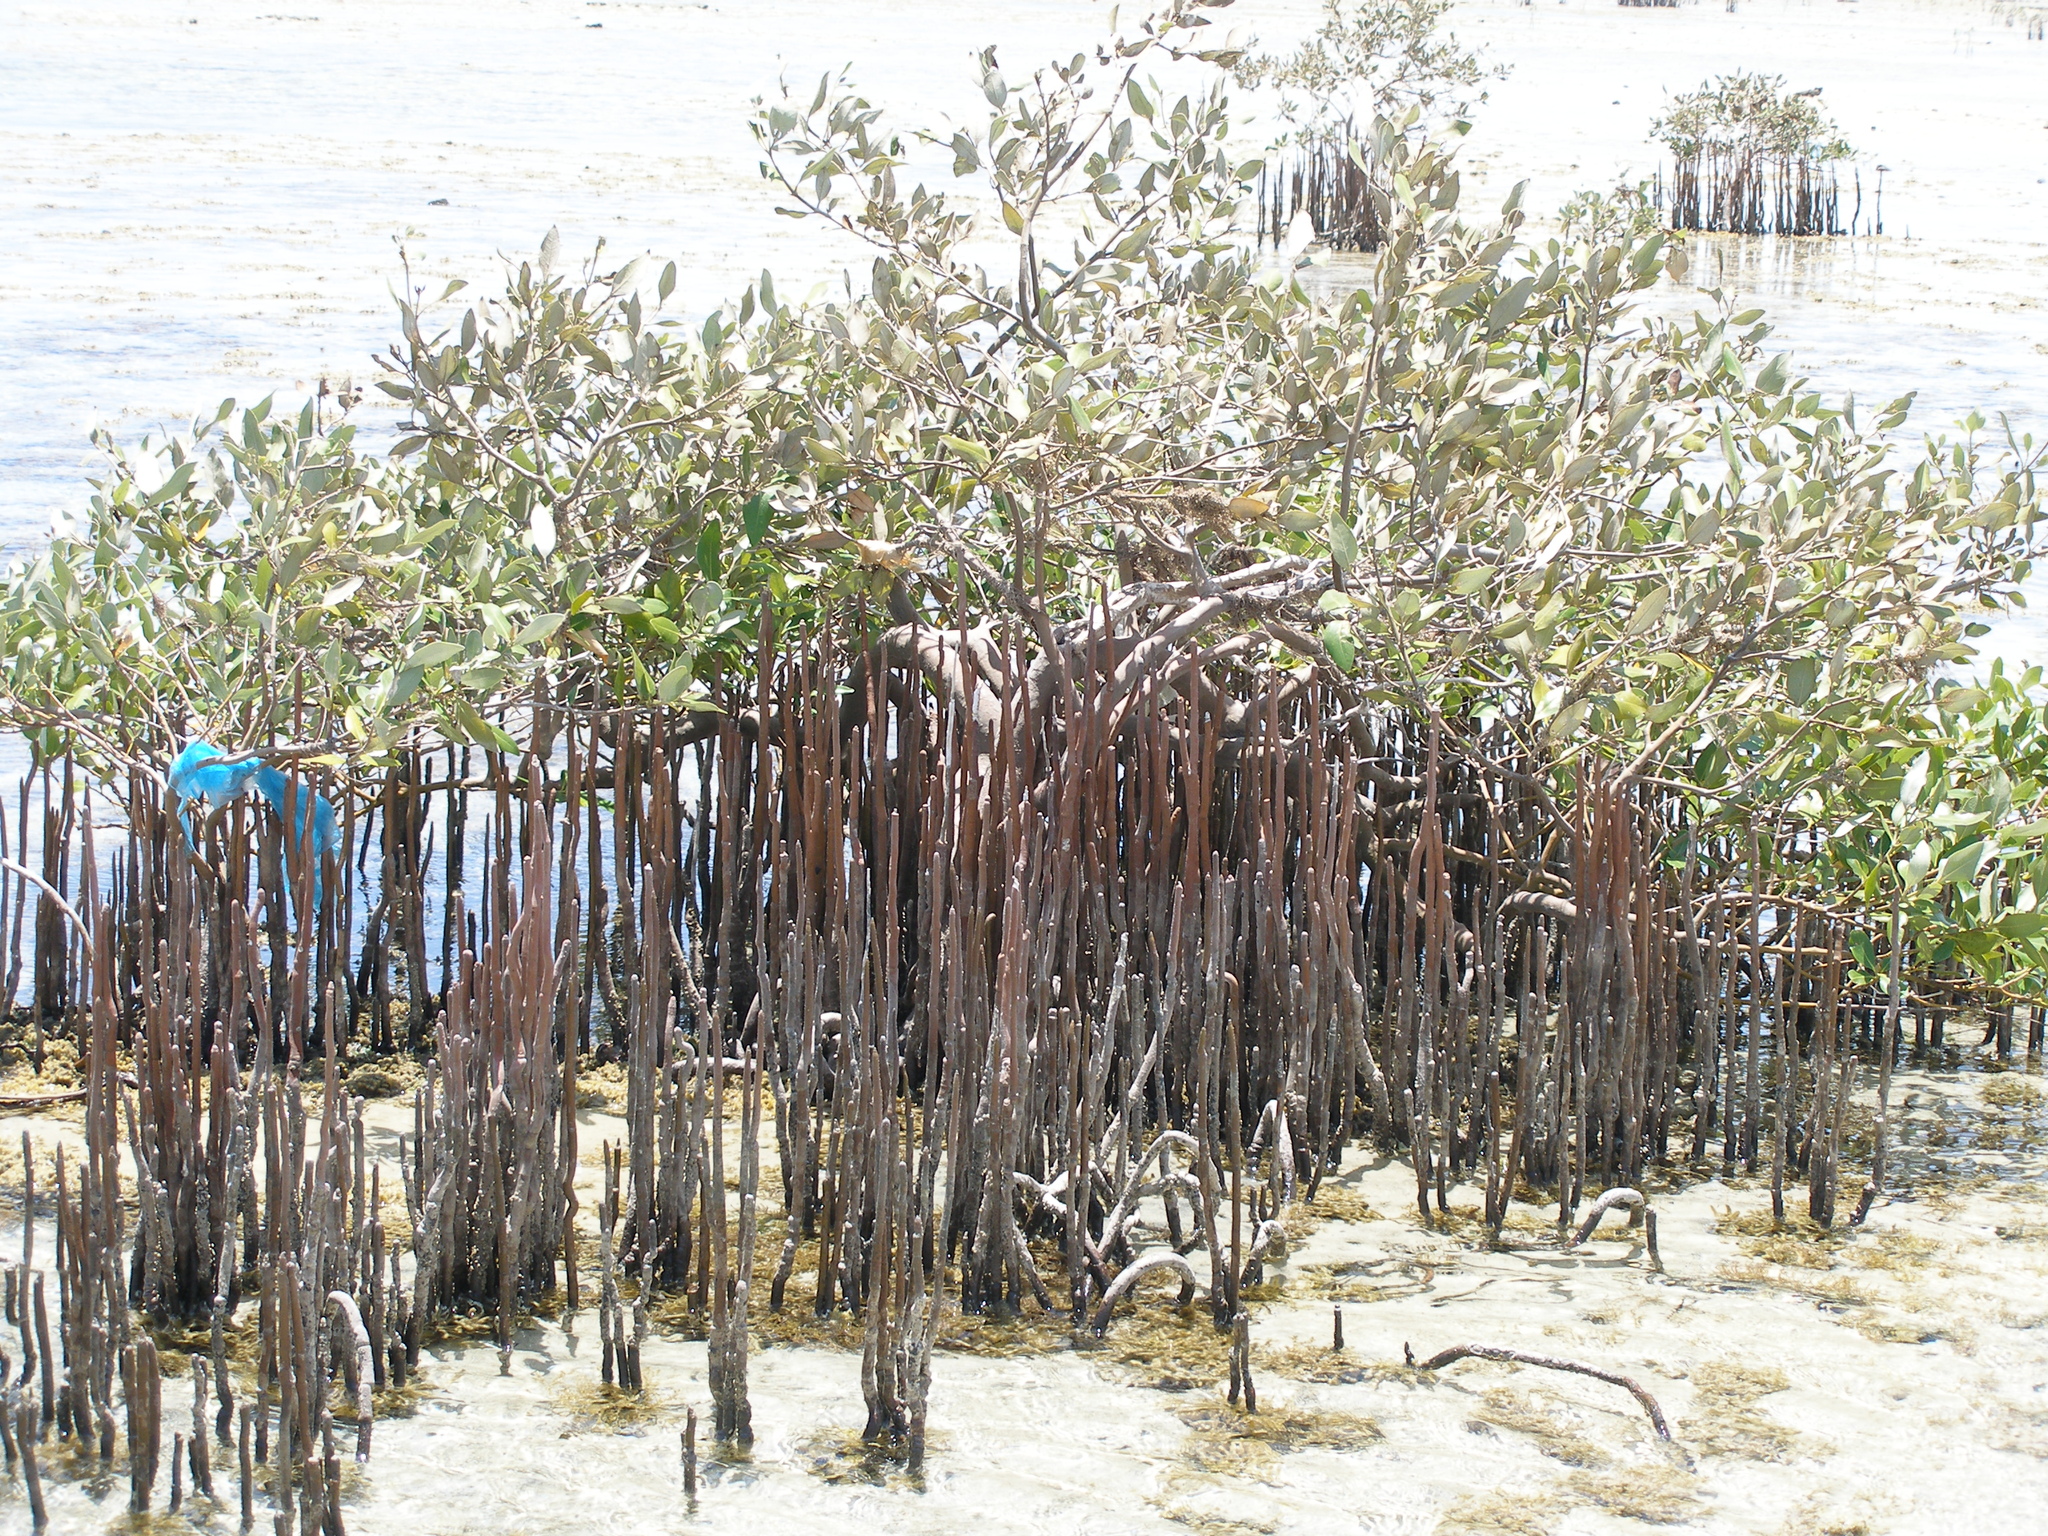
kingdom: Plantae
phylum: Tracheophyta
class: Magnoliopsida
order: Lamiales
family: Acanthaceae
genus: Avicennia
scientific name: Avicennia marina
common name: Gray mangrove
